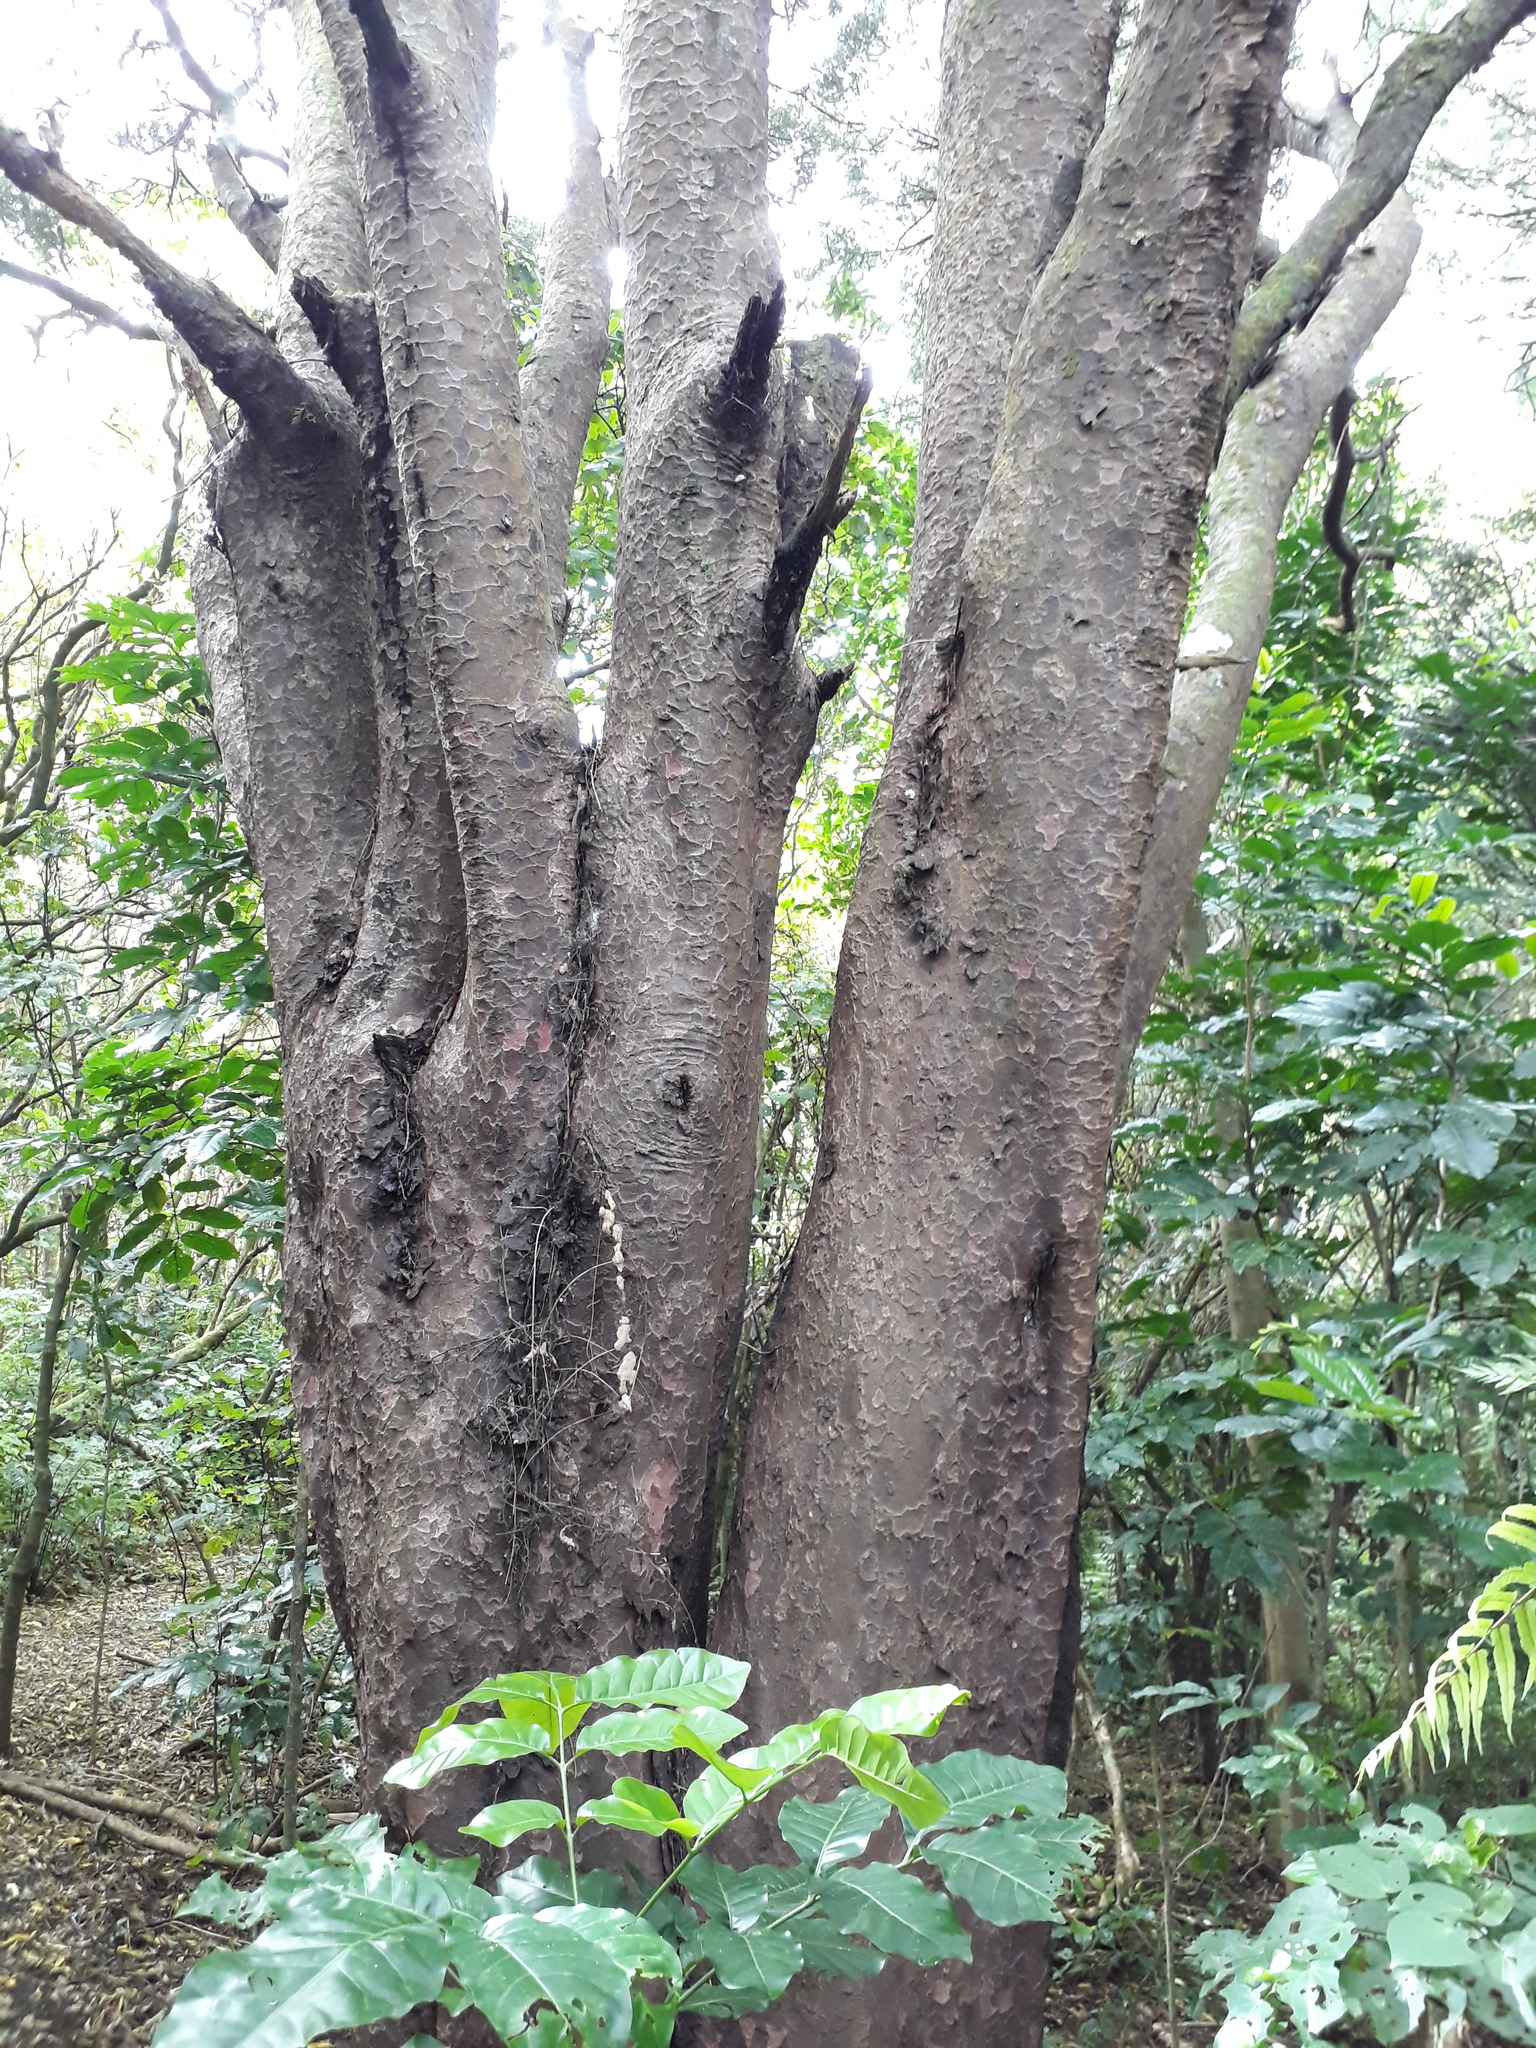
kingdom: Plantae
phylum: Tracheophyta
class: Pinopsida
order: Pinales
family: Podocarpaceae
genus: Prumnopitys
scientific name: Prumnopitys taxifolia
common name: Matai
